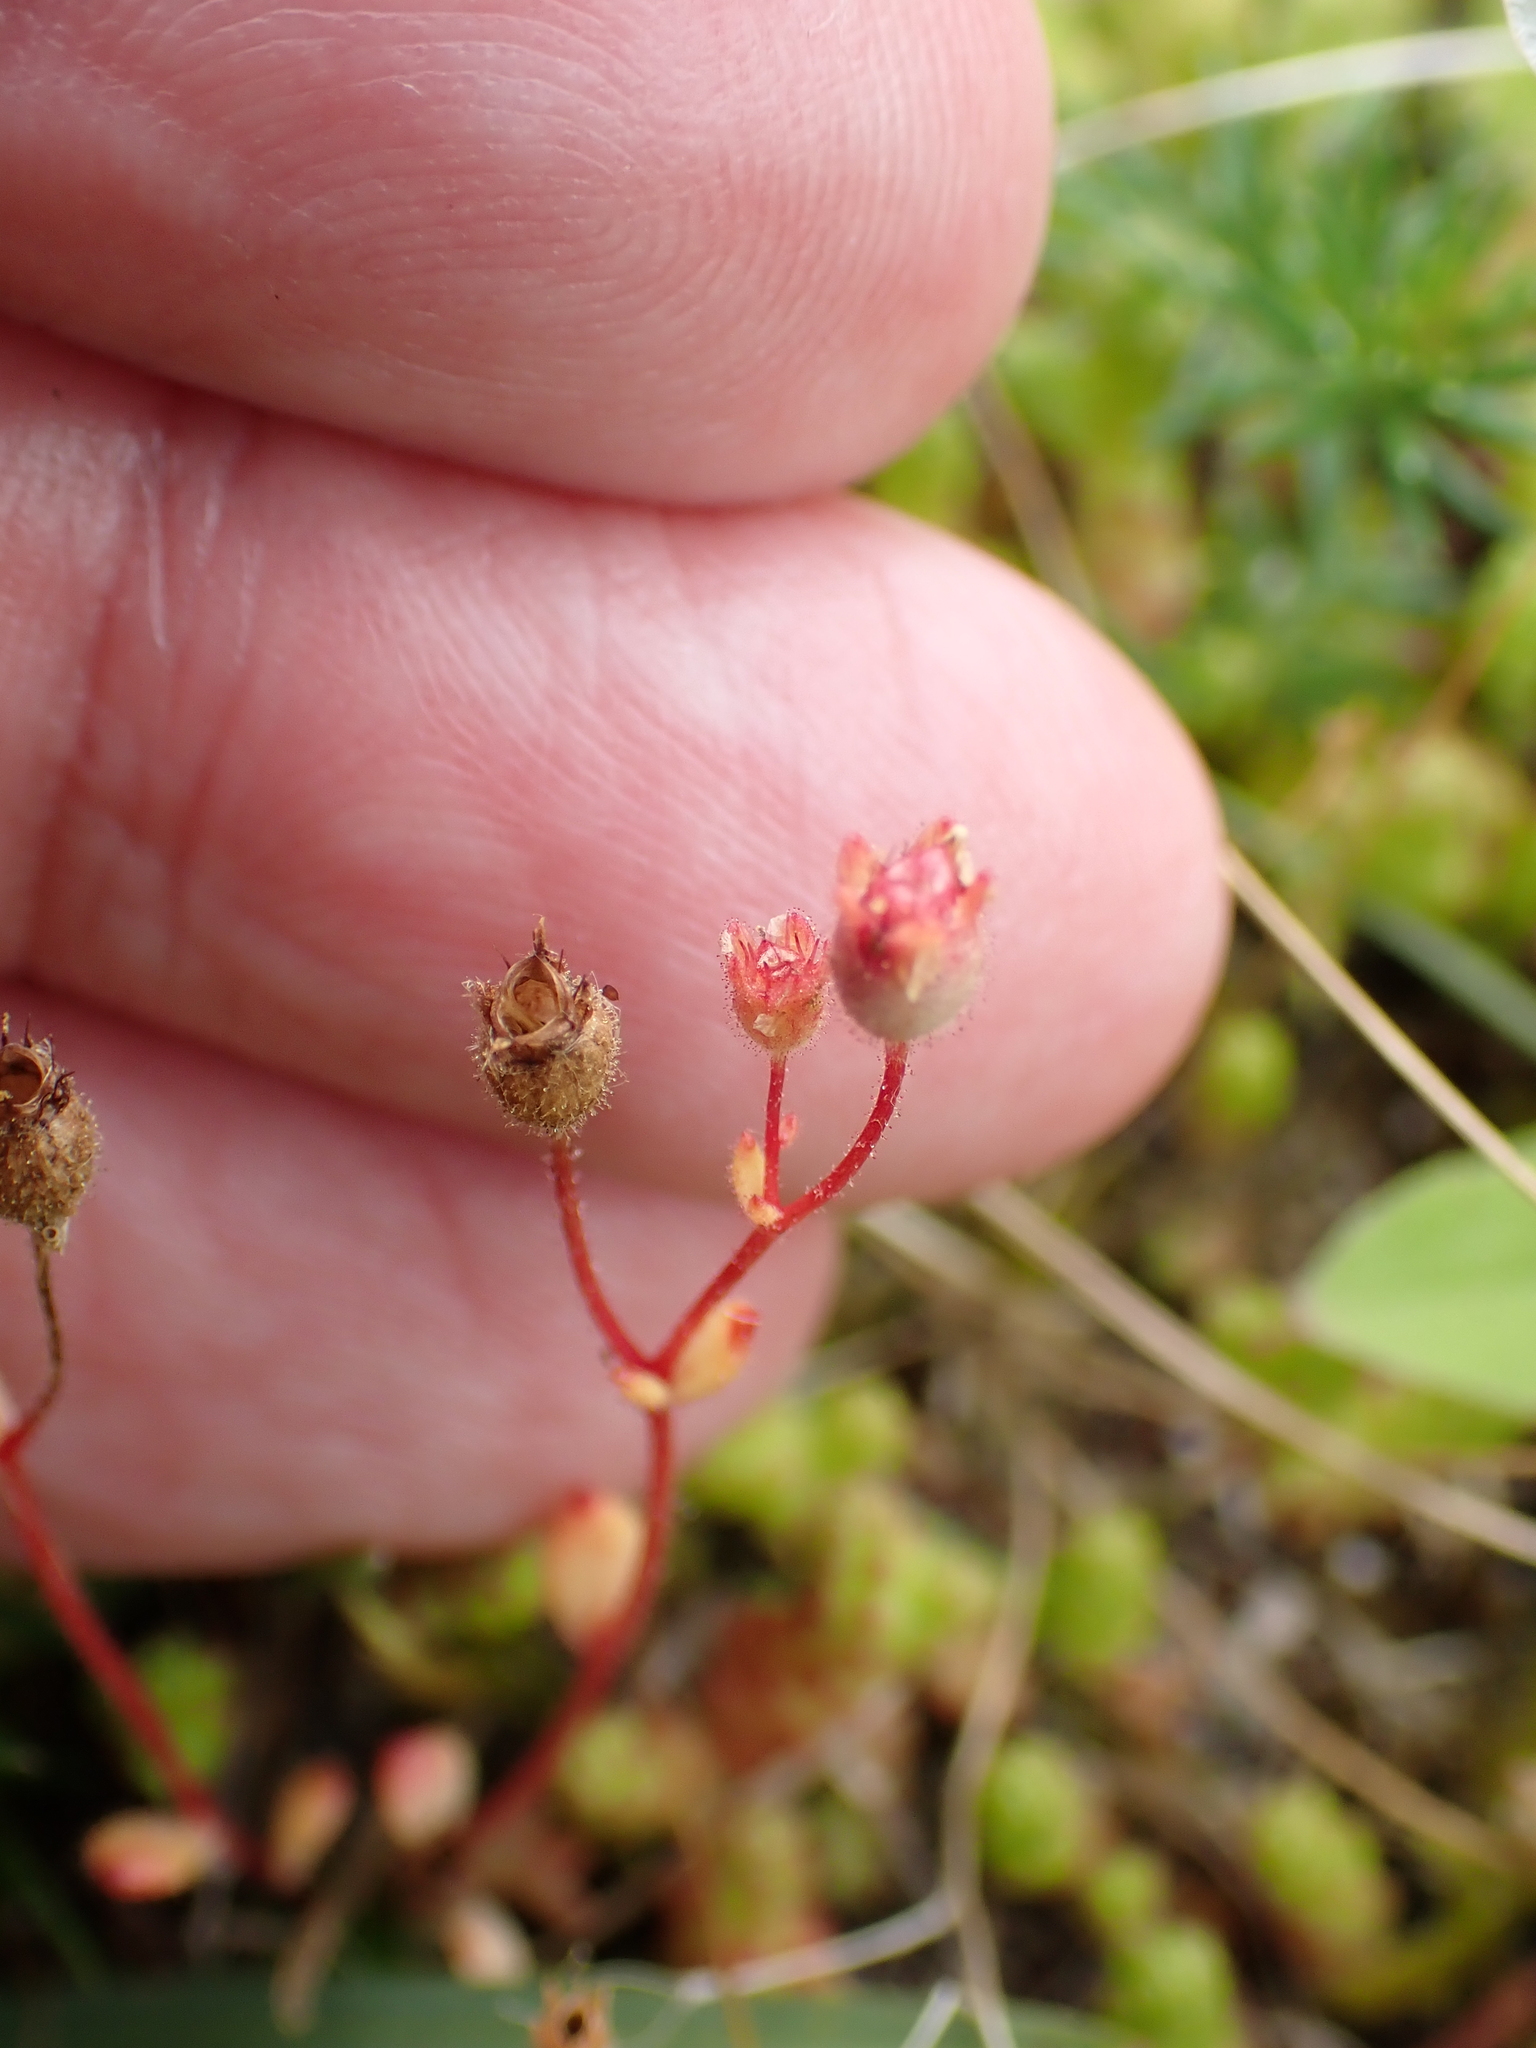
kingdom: Plantae
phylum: Tracheophyta
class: Magnoliopsida
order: Saxifragales
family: Saxifragaceae
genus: Saxifraga
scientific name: Saxifraga tridactylites
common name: Rue-leaved saxifrage
